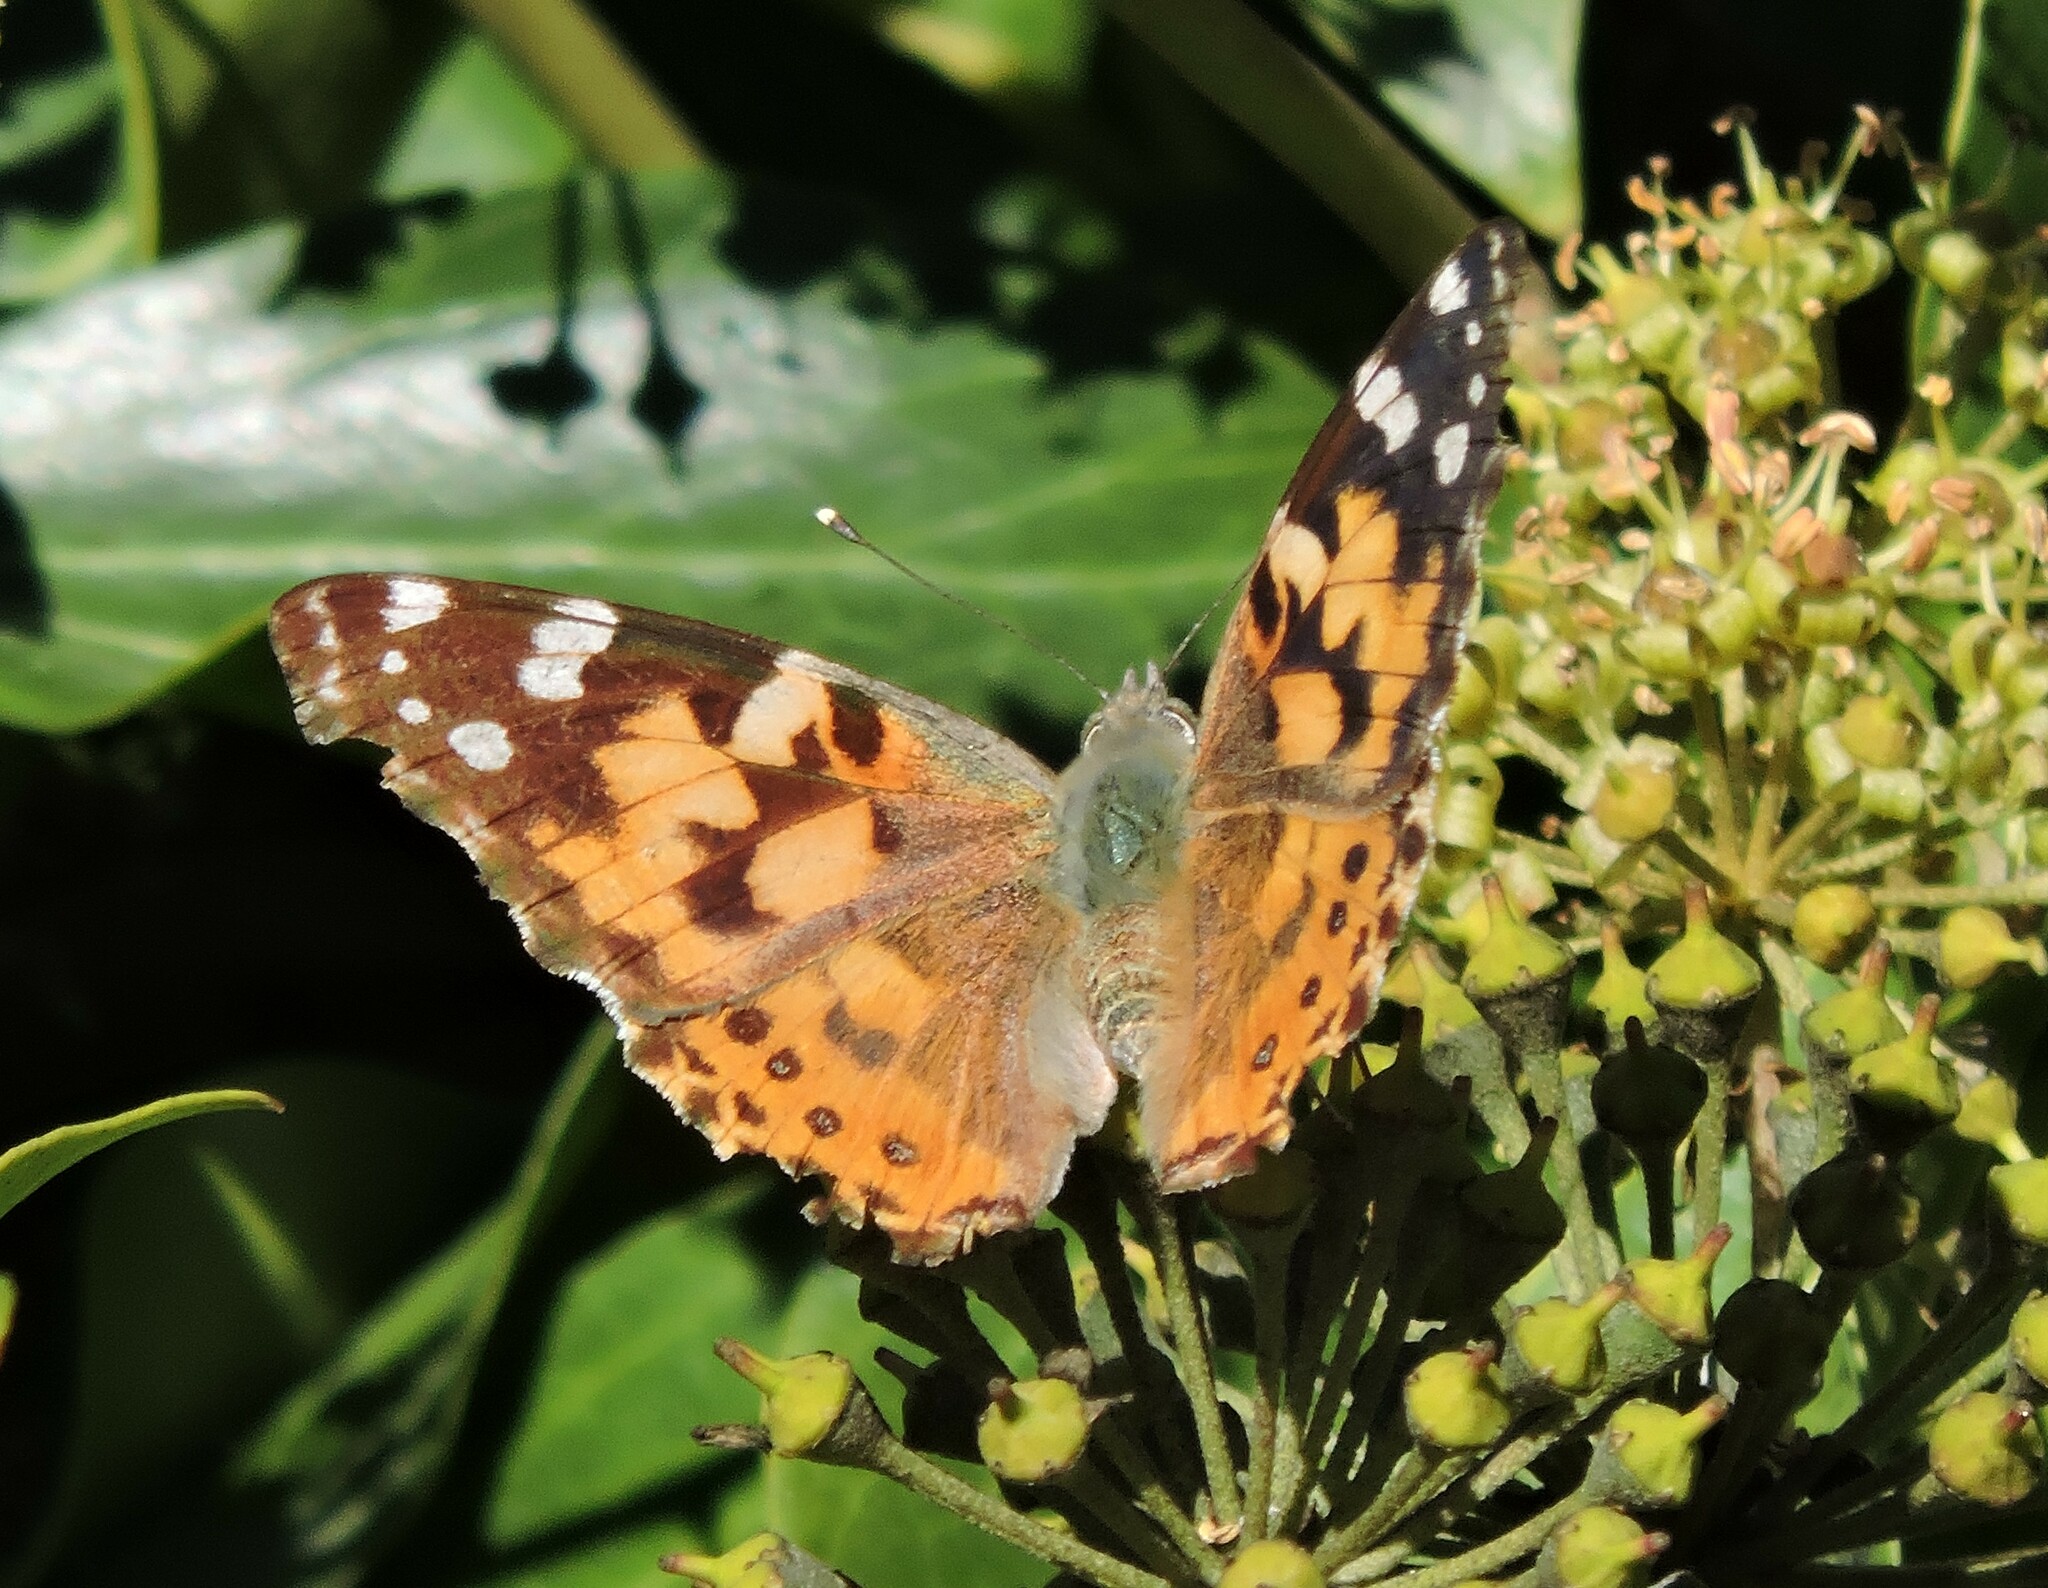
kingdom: Animalia
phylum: Arthropoda
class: Insecta
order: Lepidoptera
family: Nymphalidae
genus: Vanessa
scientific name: Vanessa cardui
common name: Painted lady
